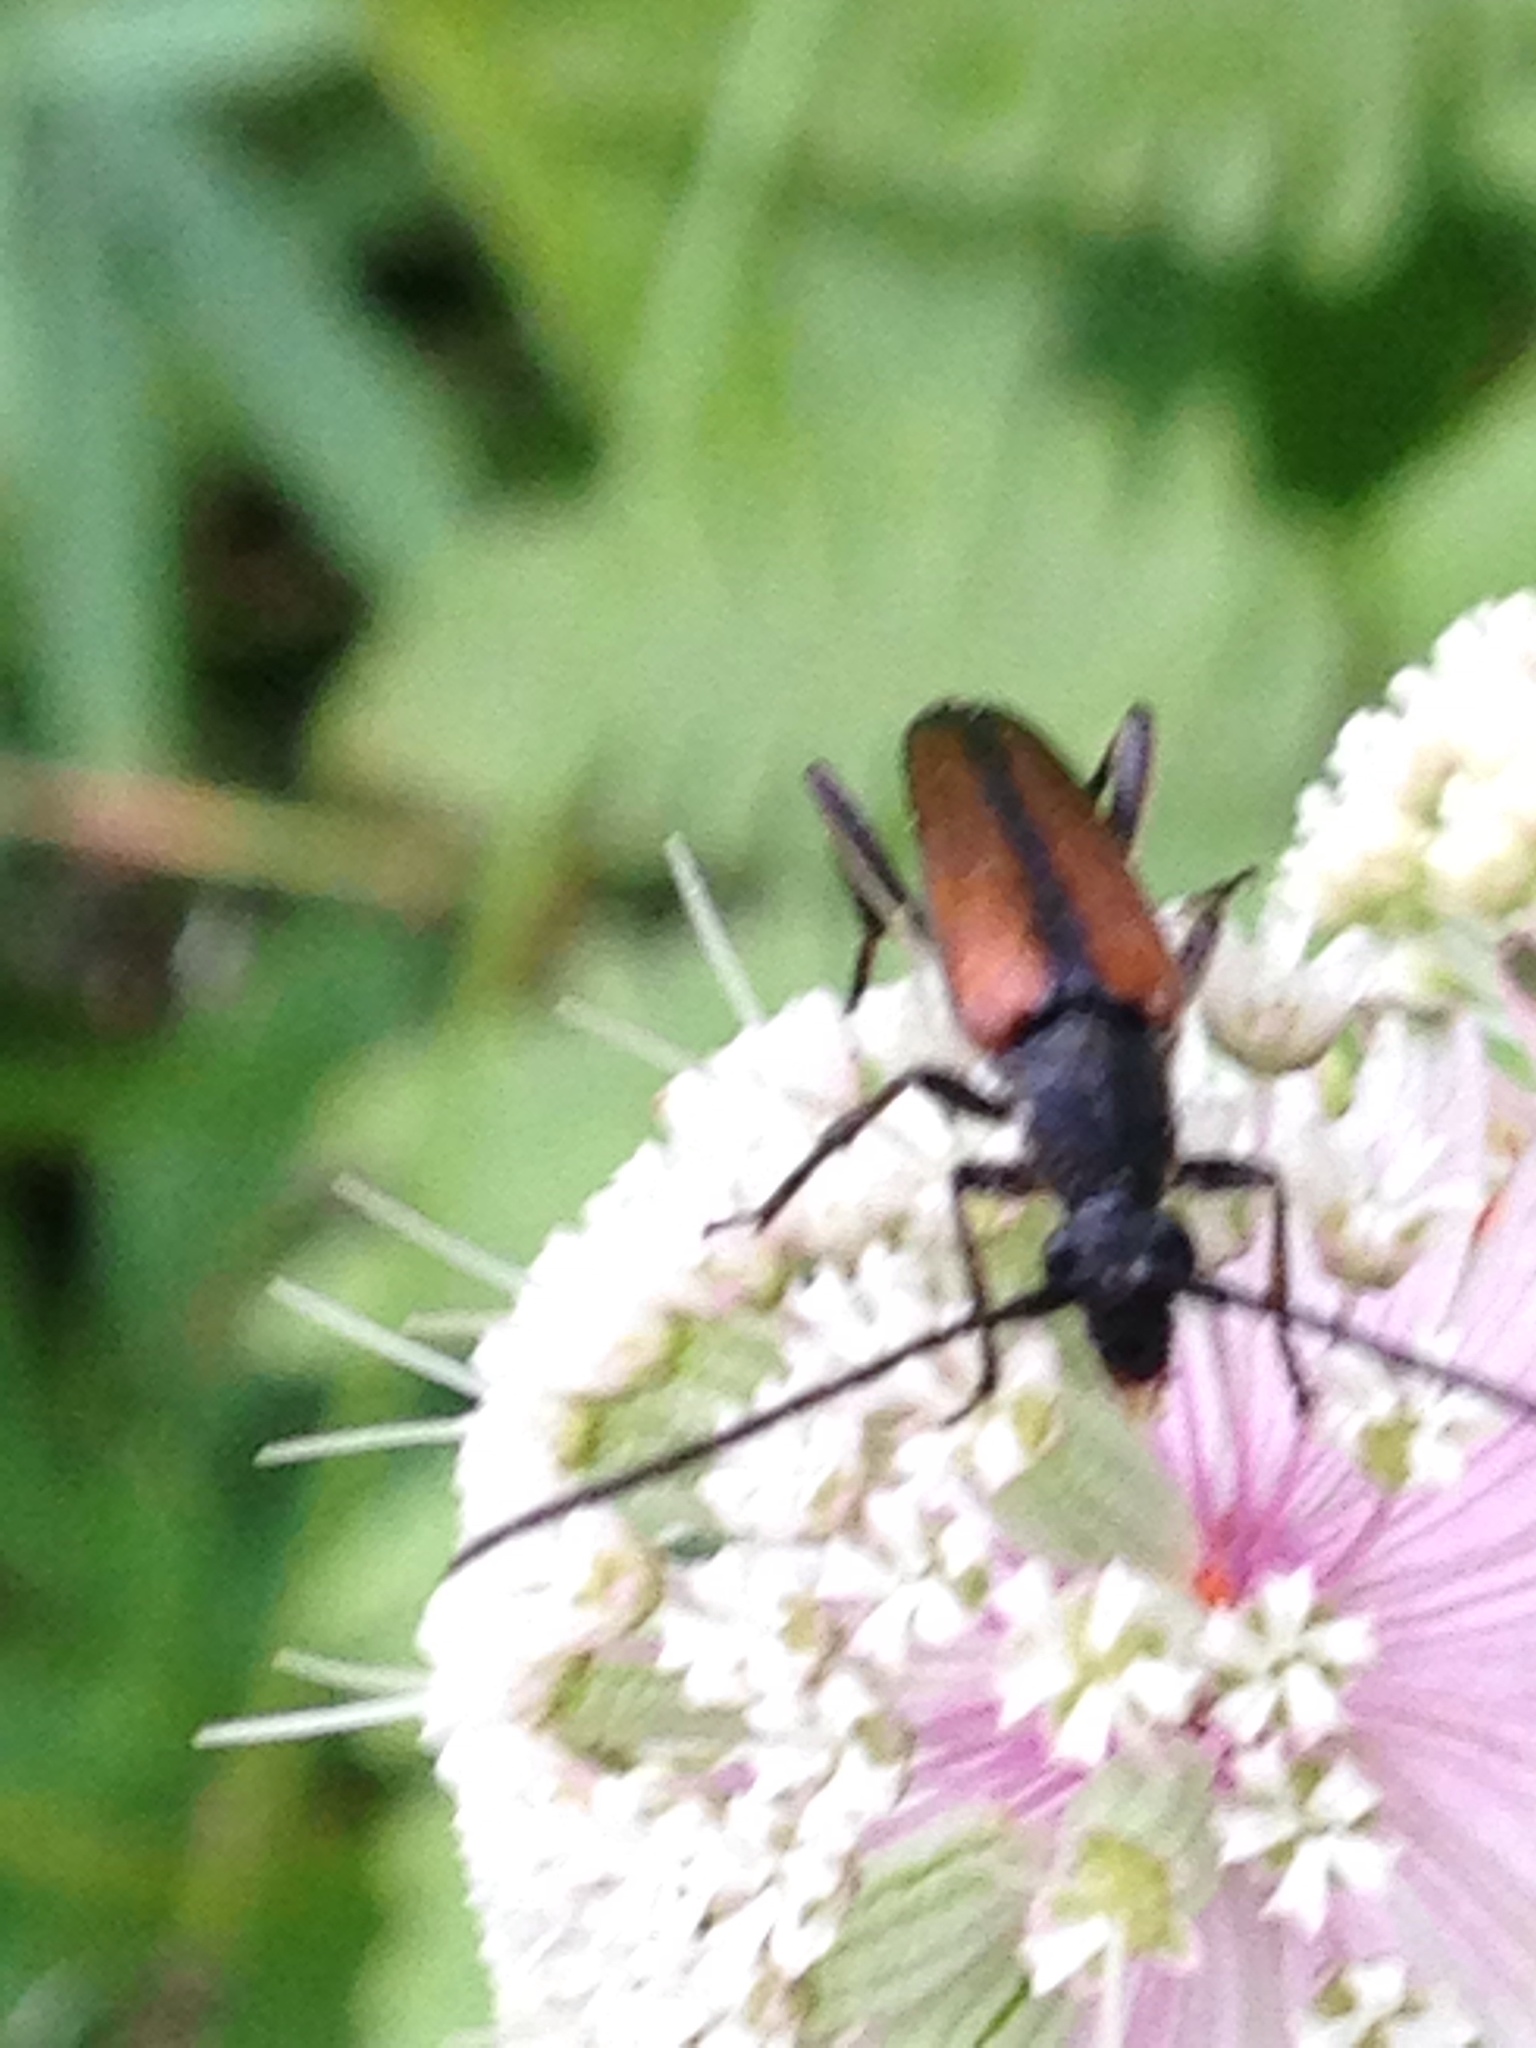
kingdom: Animalia
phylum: Arthropoda
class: Insecta
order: Coleoptera
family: Cerambycidae
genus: Stenurella
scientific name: Stenurella melanura
